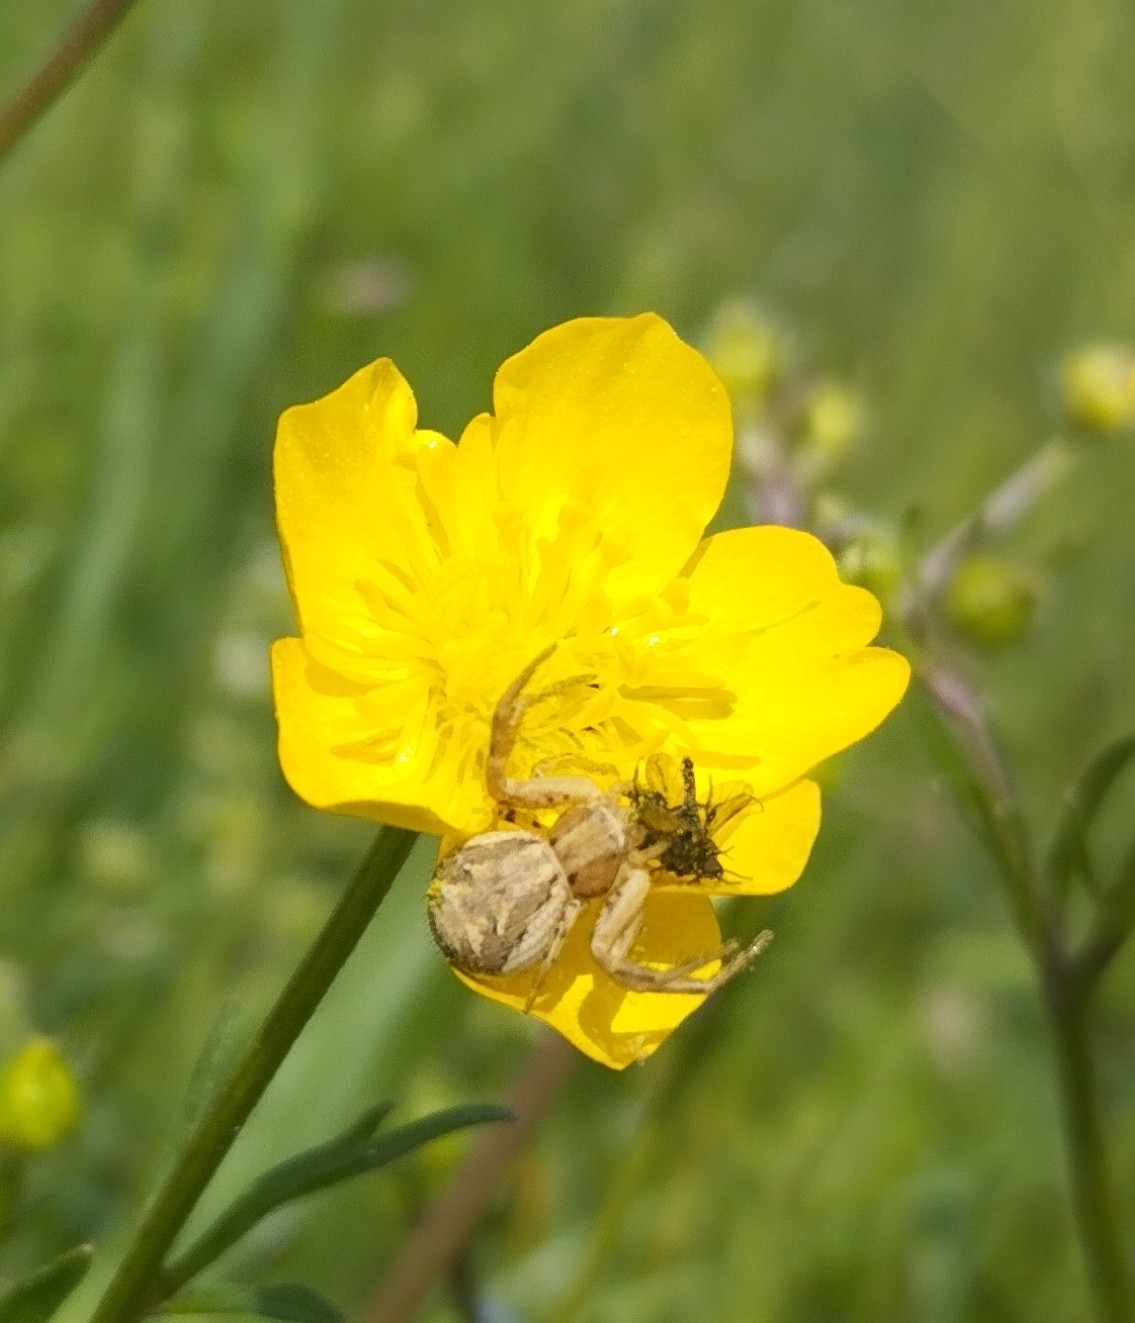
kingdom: Animalia
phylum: Arthropoda
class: Arachnida
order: Araneae
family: Thomisidae
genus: Xysticus
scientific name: Xysticus
